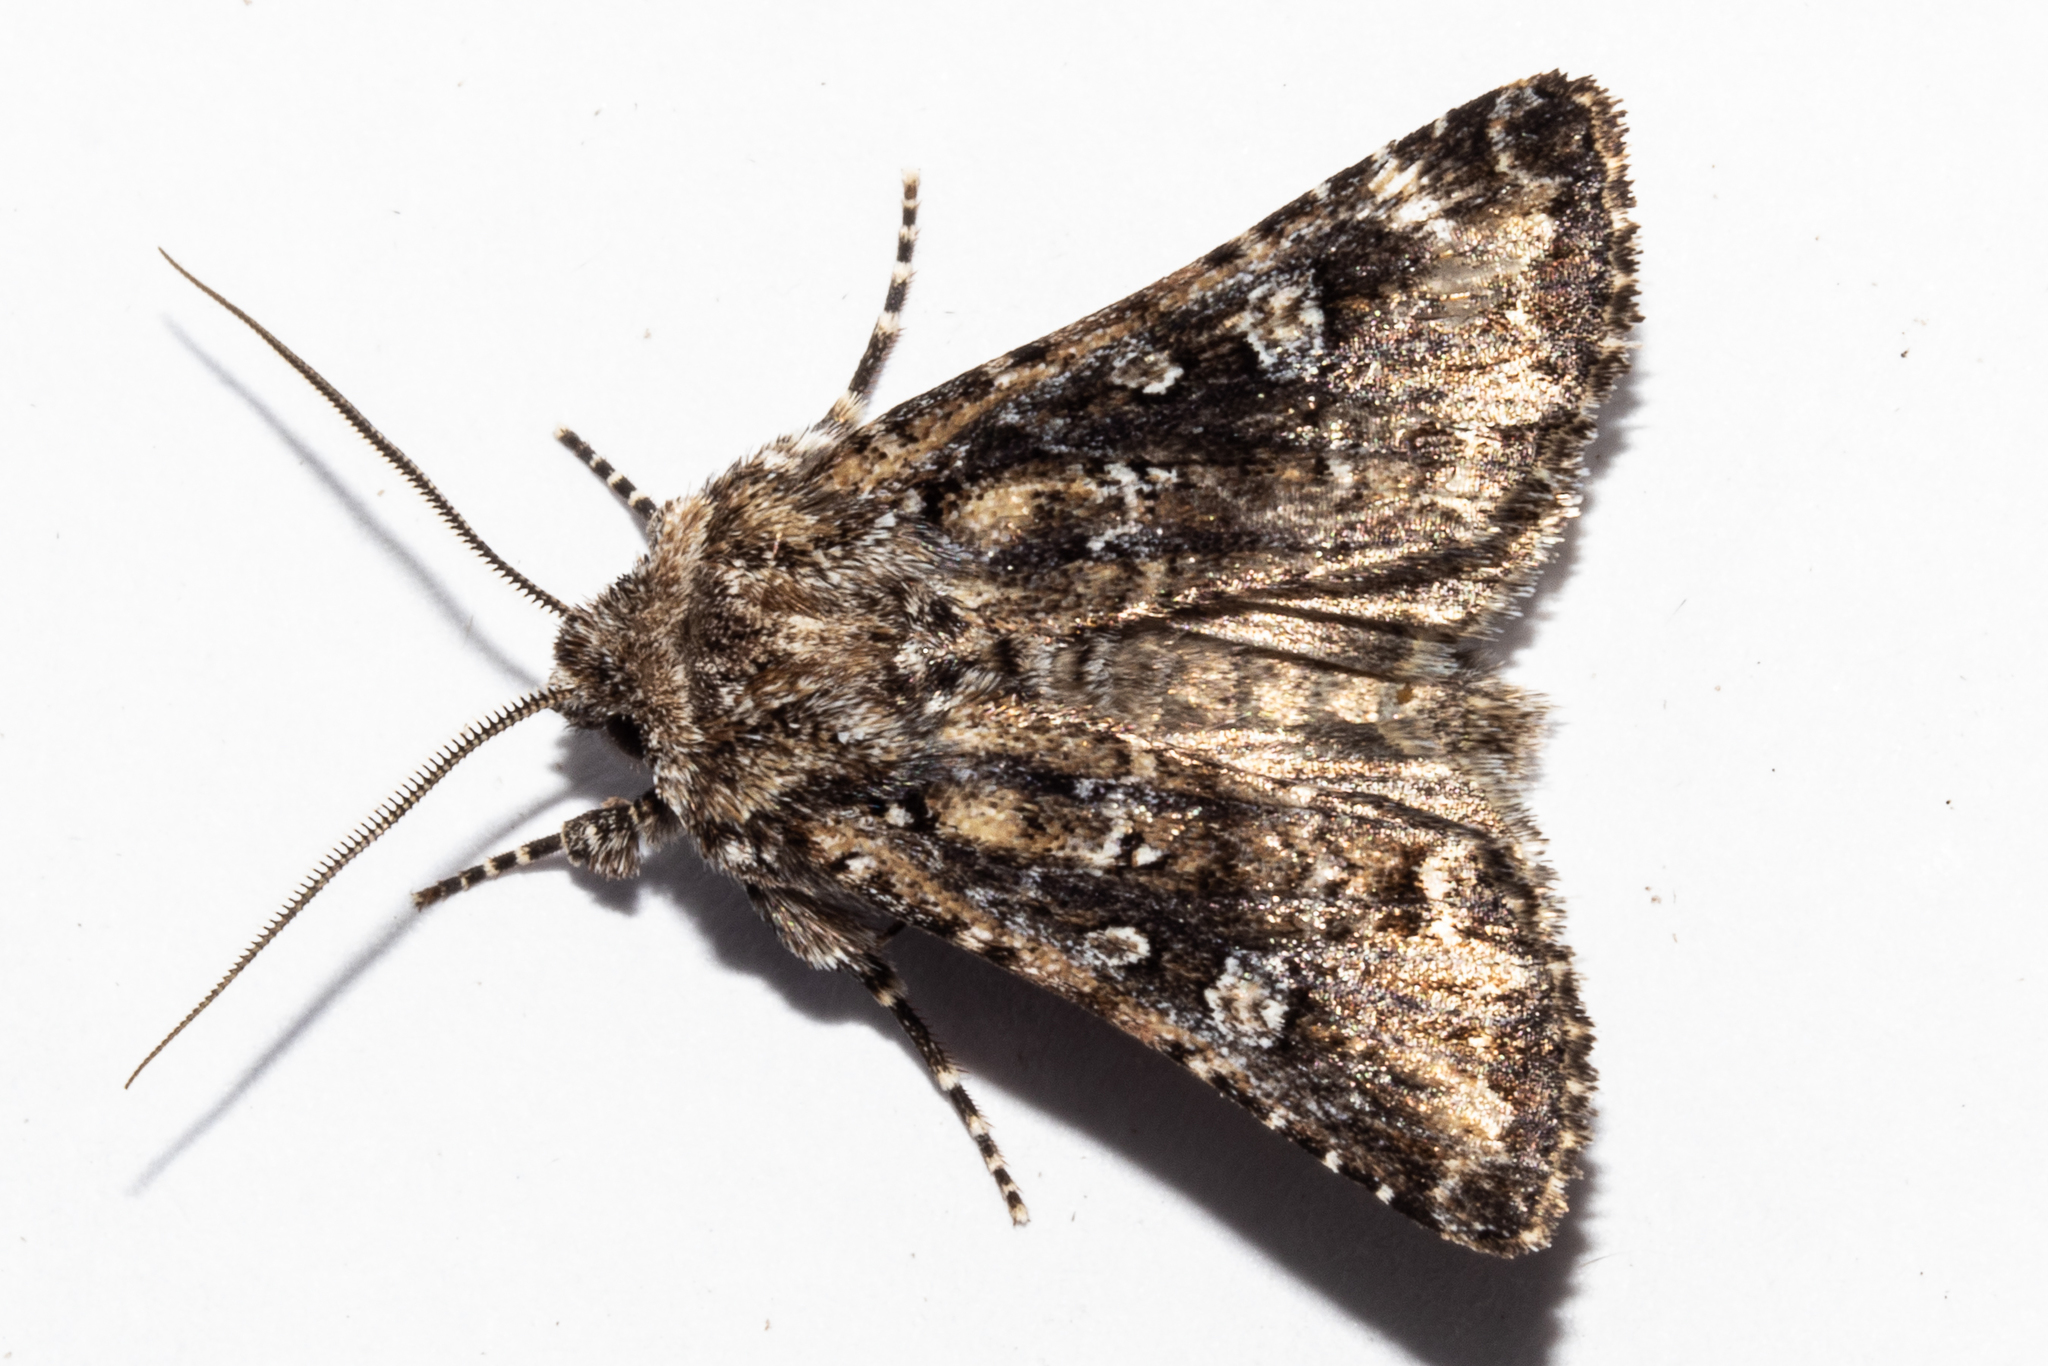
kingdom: Animalia
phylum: Arthropoda
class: Insecta
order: Lepidoptera
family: Noctuidae
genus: Ichneutica
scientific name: Ichneutica lithias
